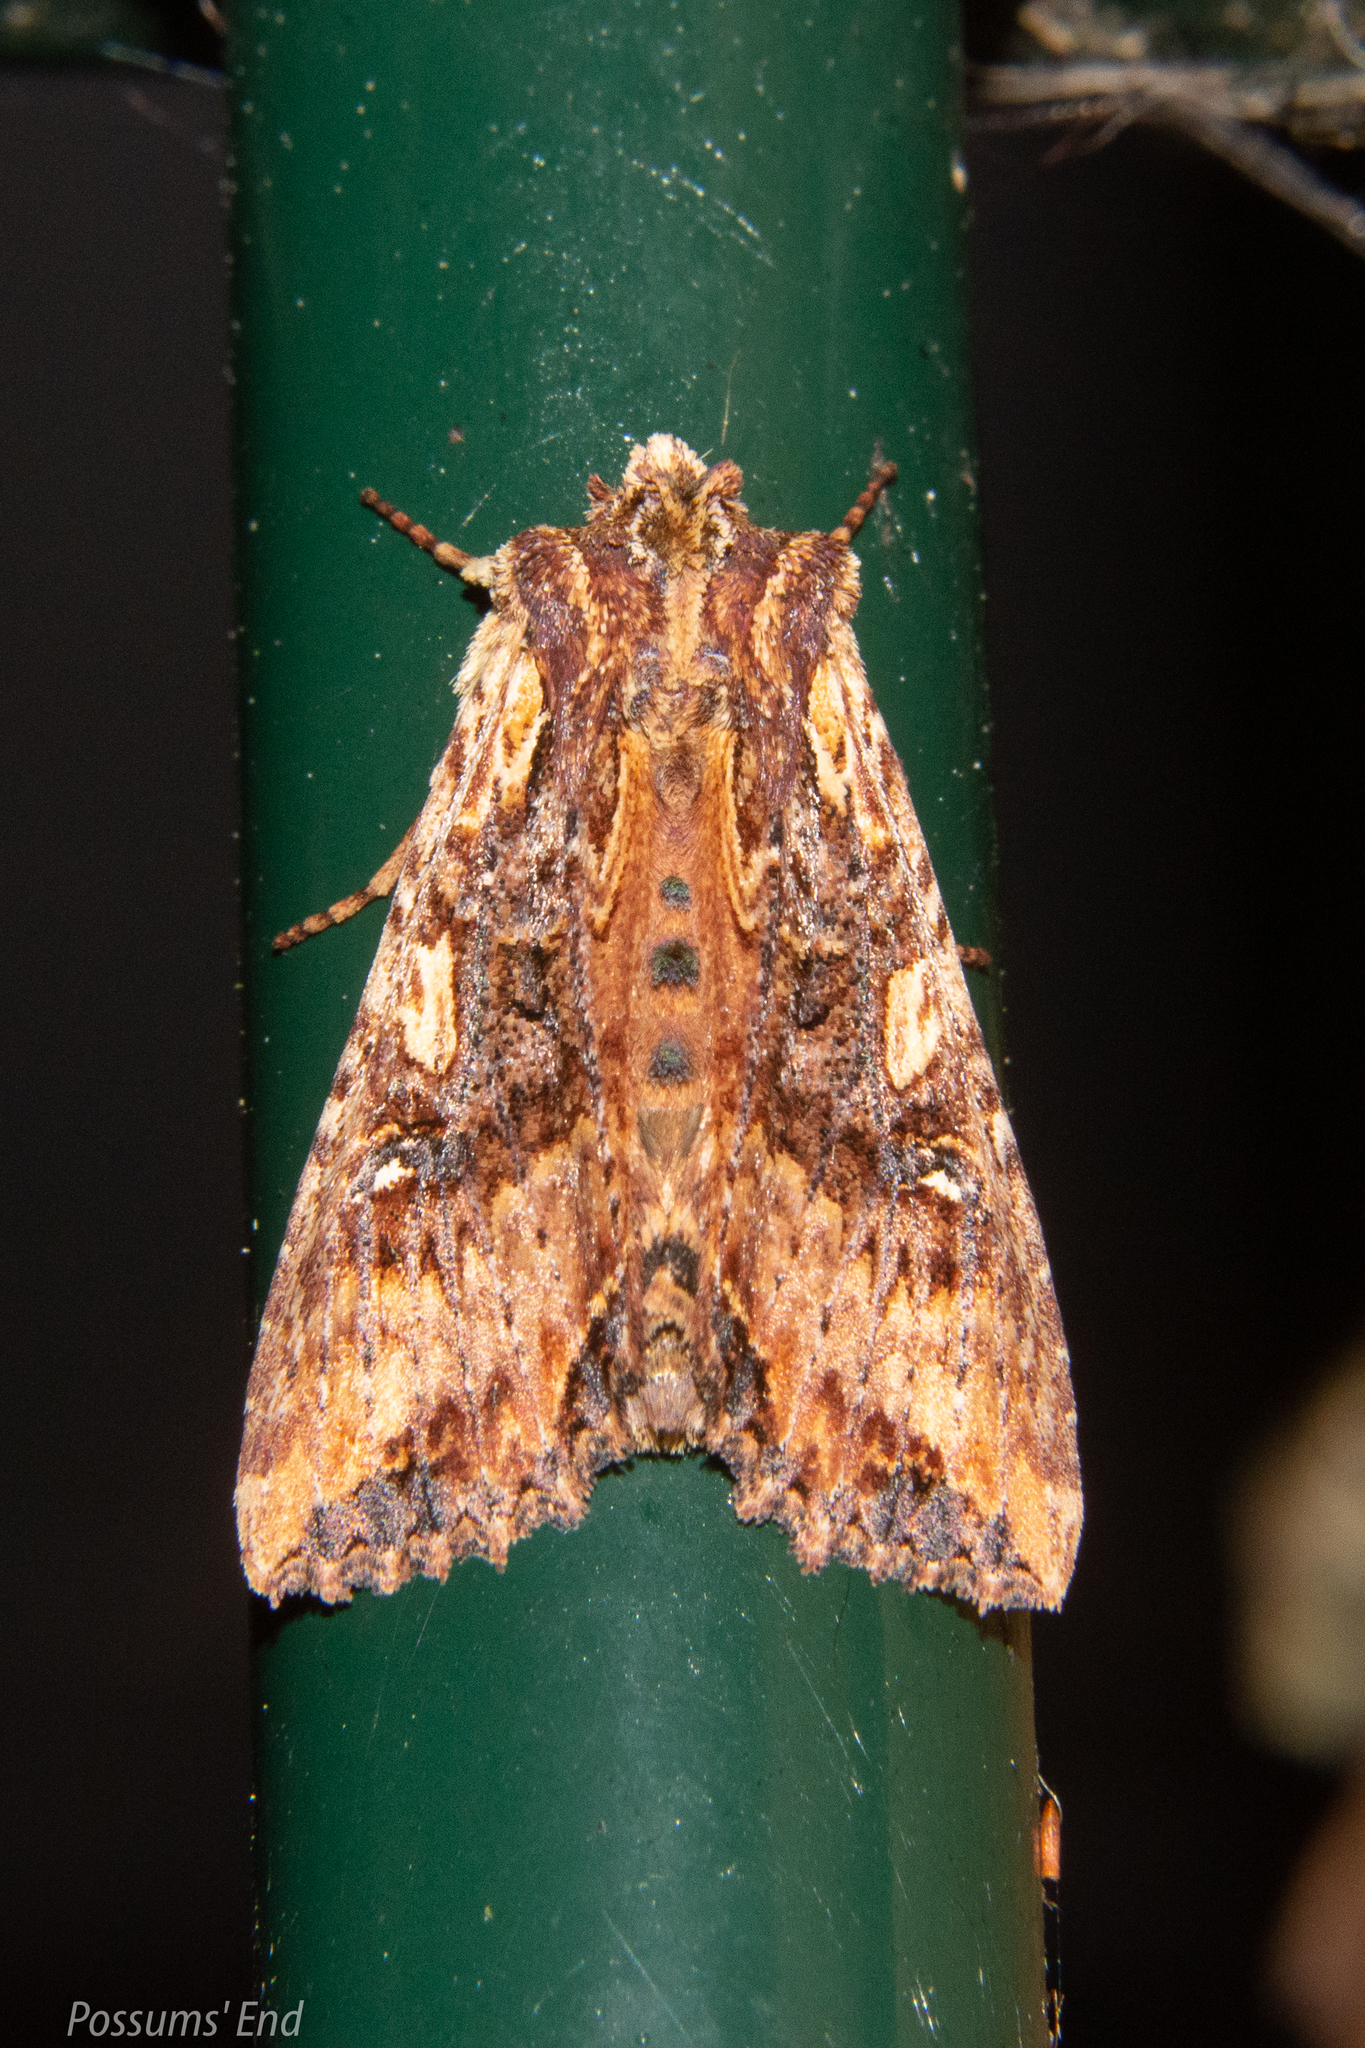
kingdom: Animalia
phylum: Arthropoda
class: Insecta
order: Lepidoptera
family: Noctuidae
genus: Meterana
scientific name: Meterana stipata
